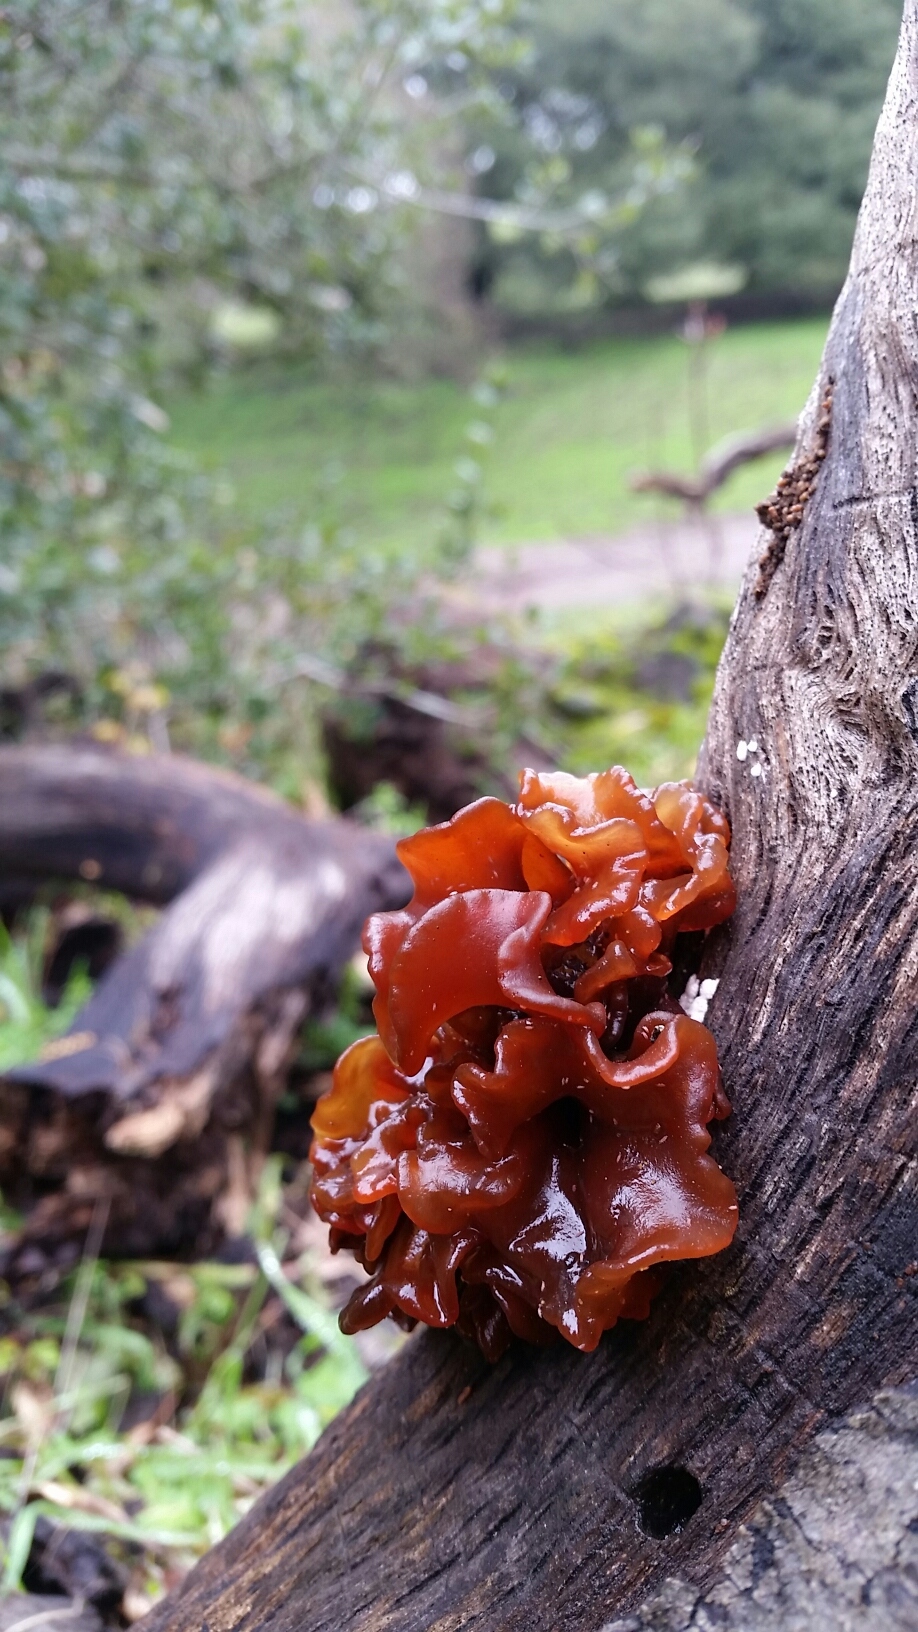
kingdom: Fungi
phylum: Basidiomycota
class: Tremellomycetes
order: Tremellales
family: Tremellaceae
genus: Phaeotremella
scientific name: Phaeotremella foliacea
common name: Leafy brain
